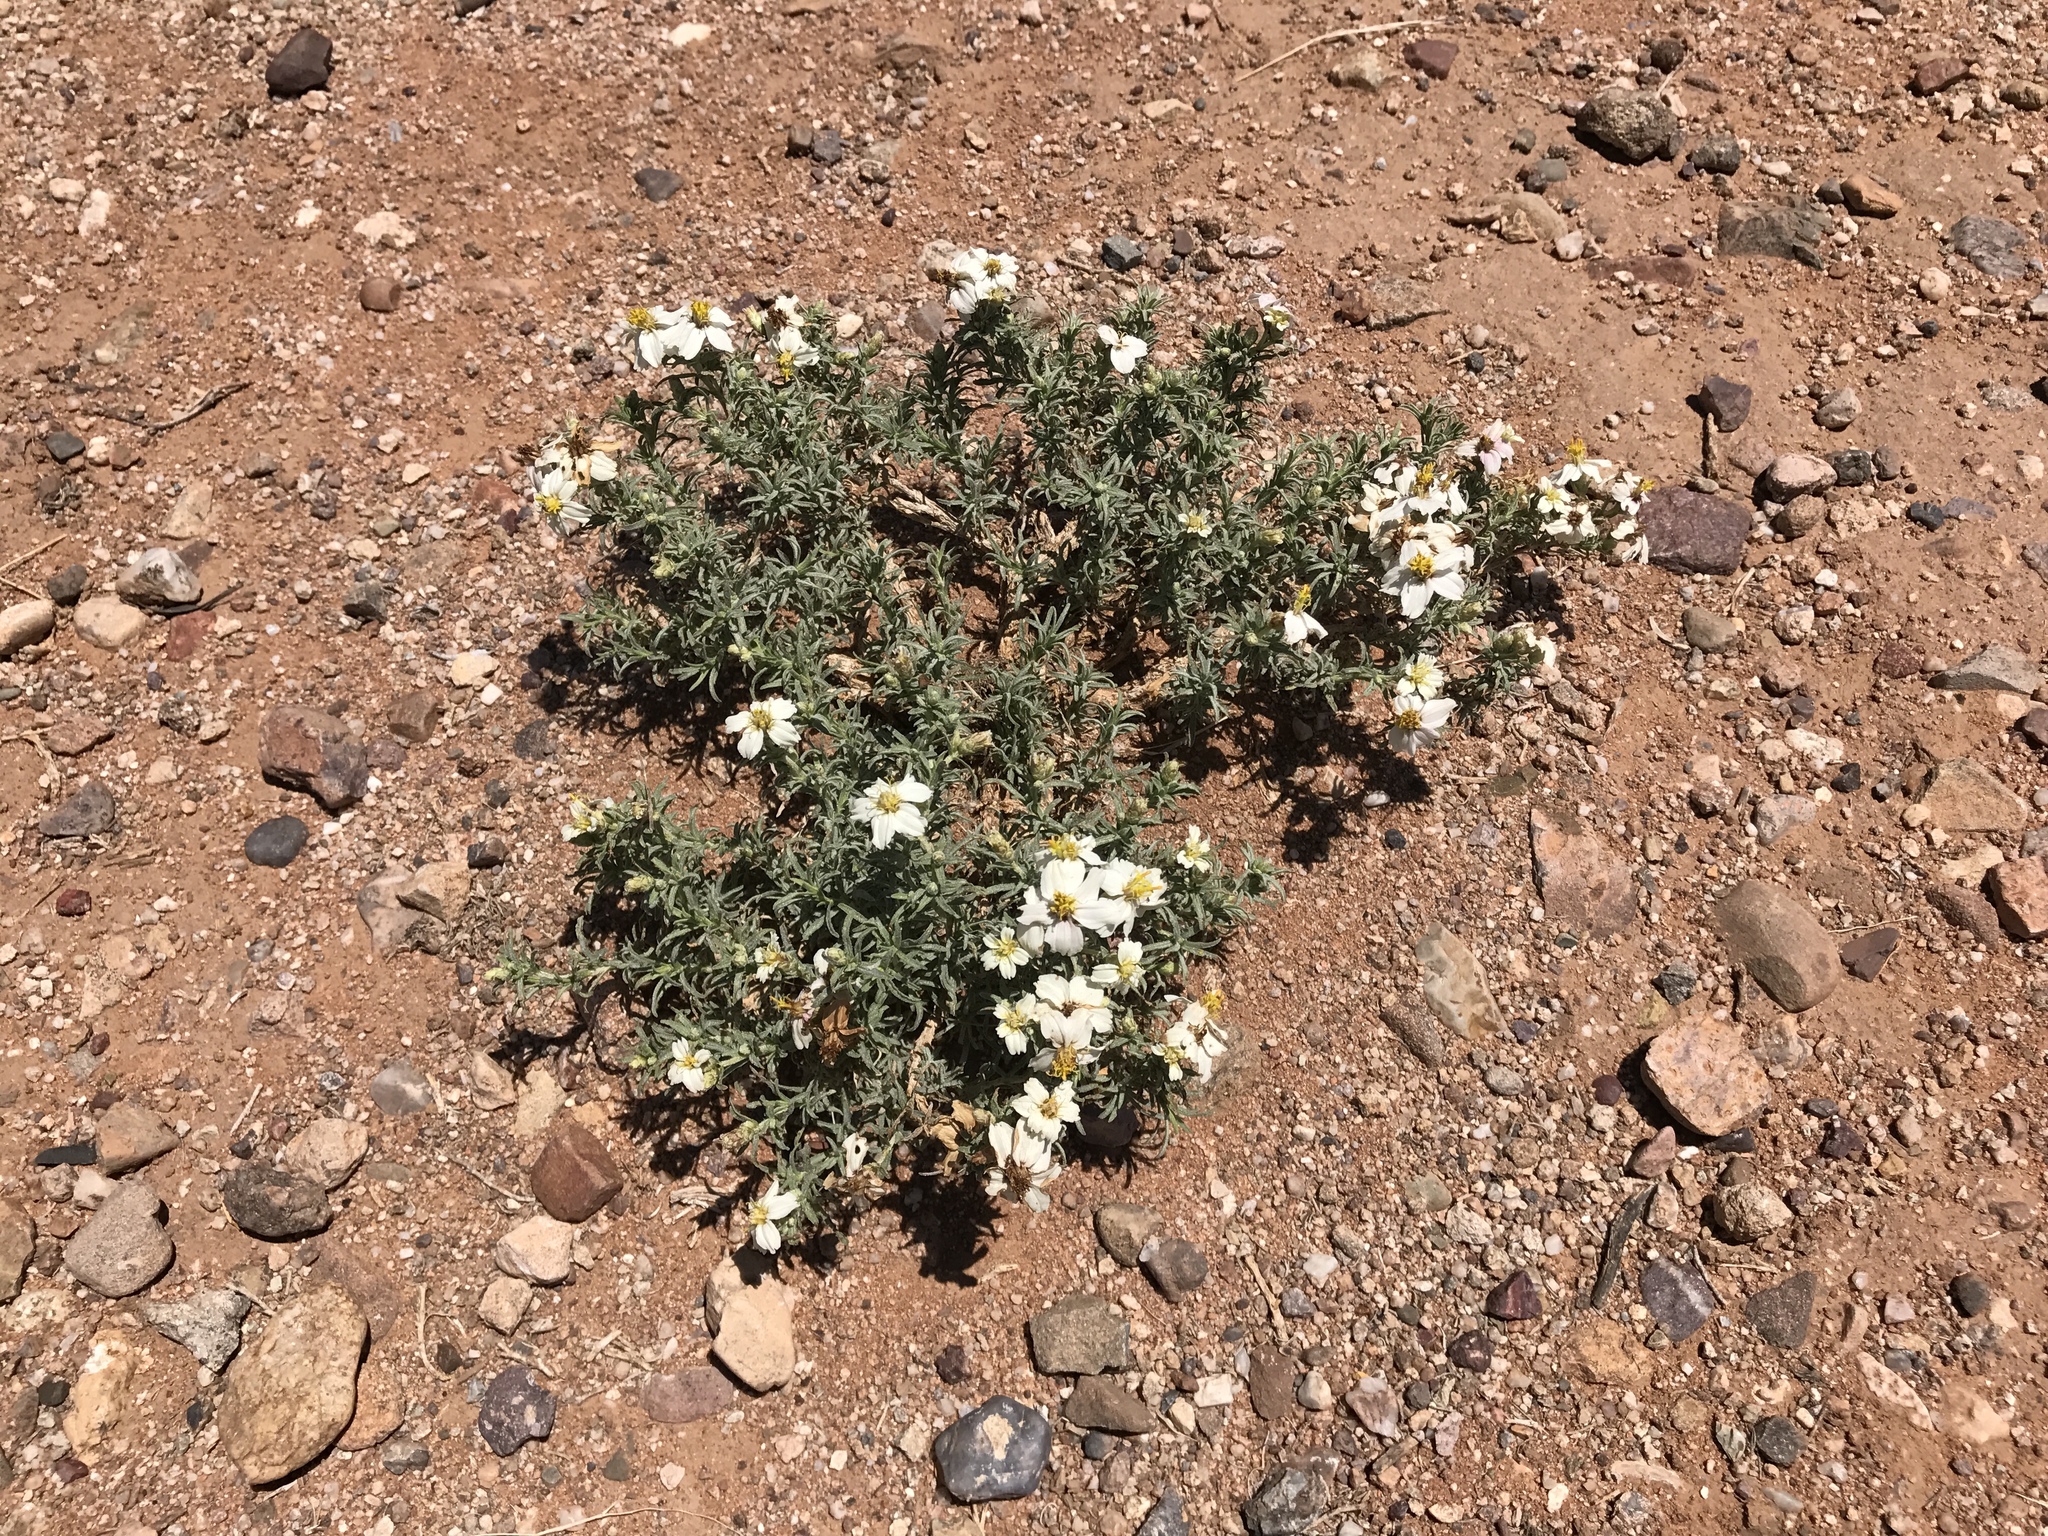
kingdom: Plantae
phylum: Tracheophyta
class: Magnoliopsida
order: Asterales
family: Asteraceae
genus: Zinnia
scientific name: Zinnia acerosa
